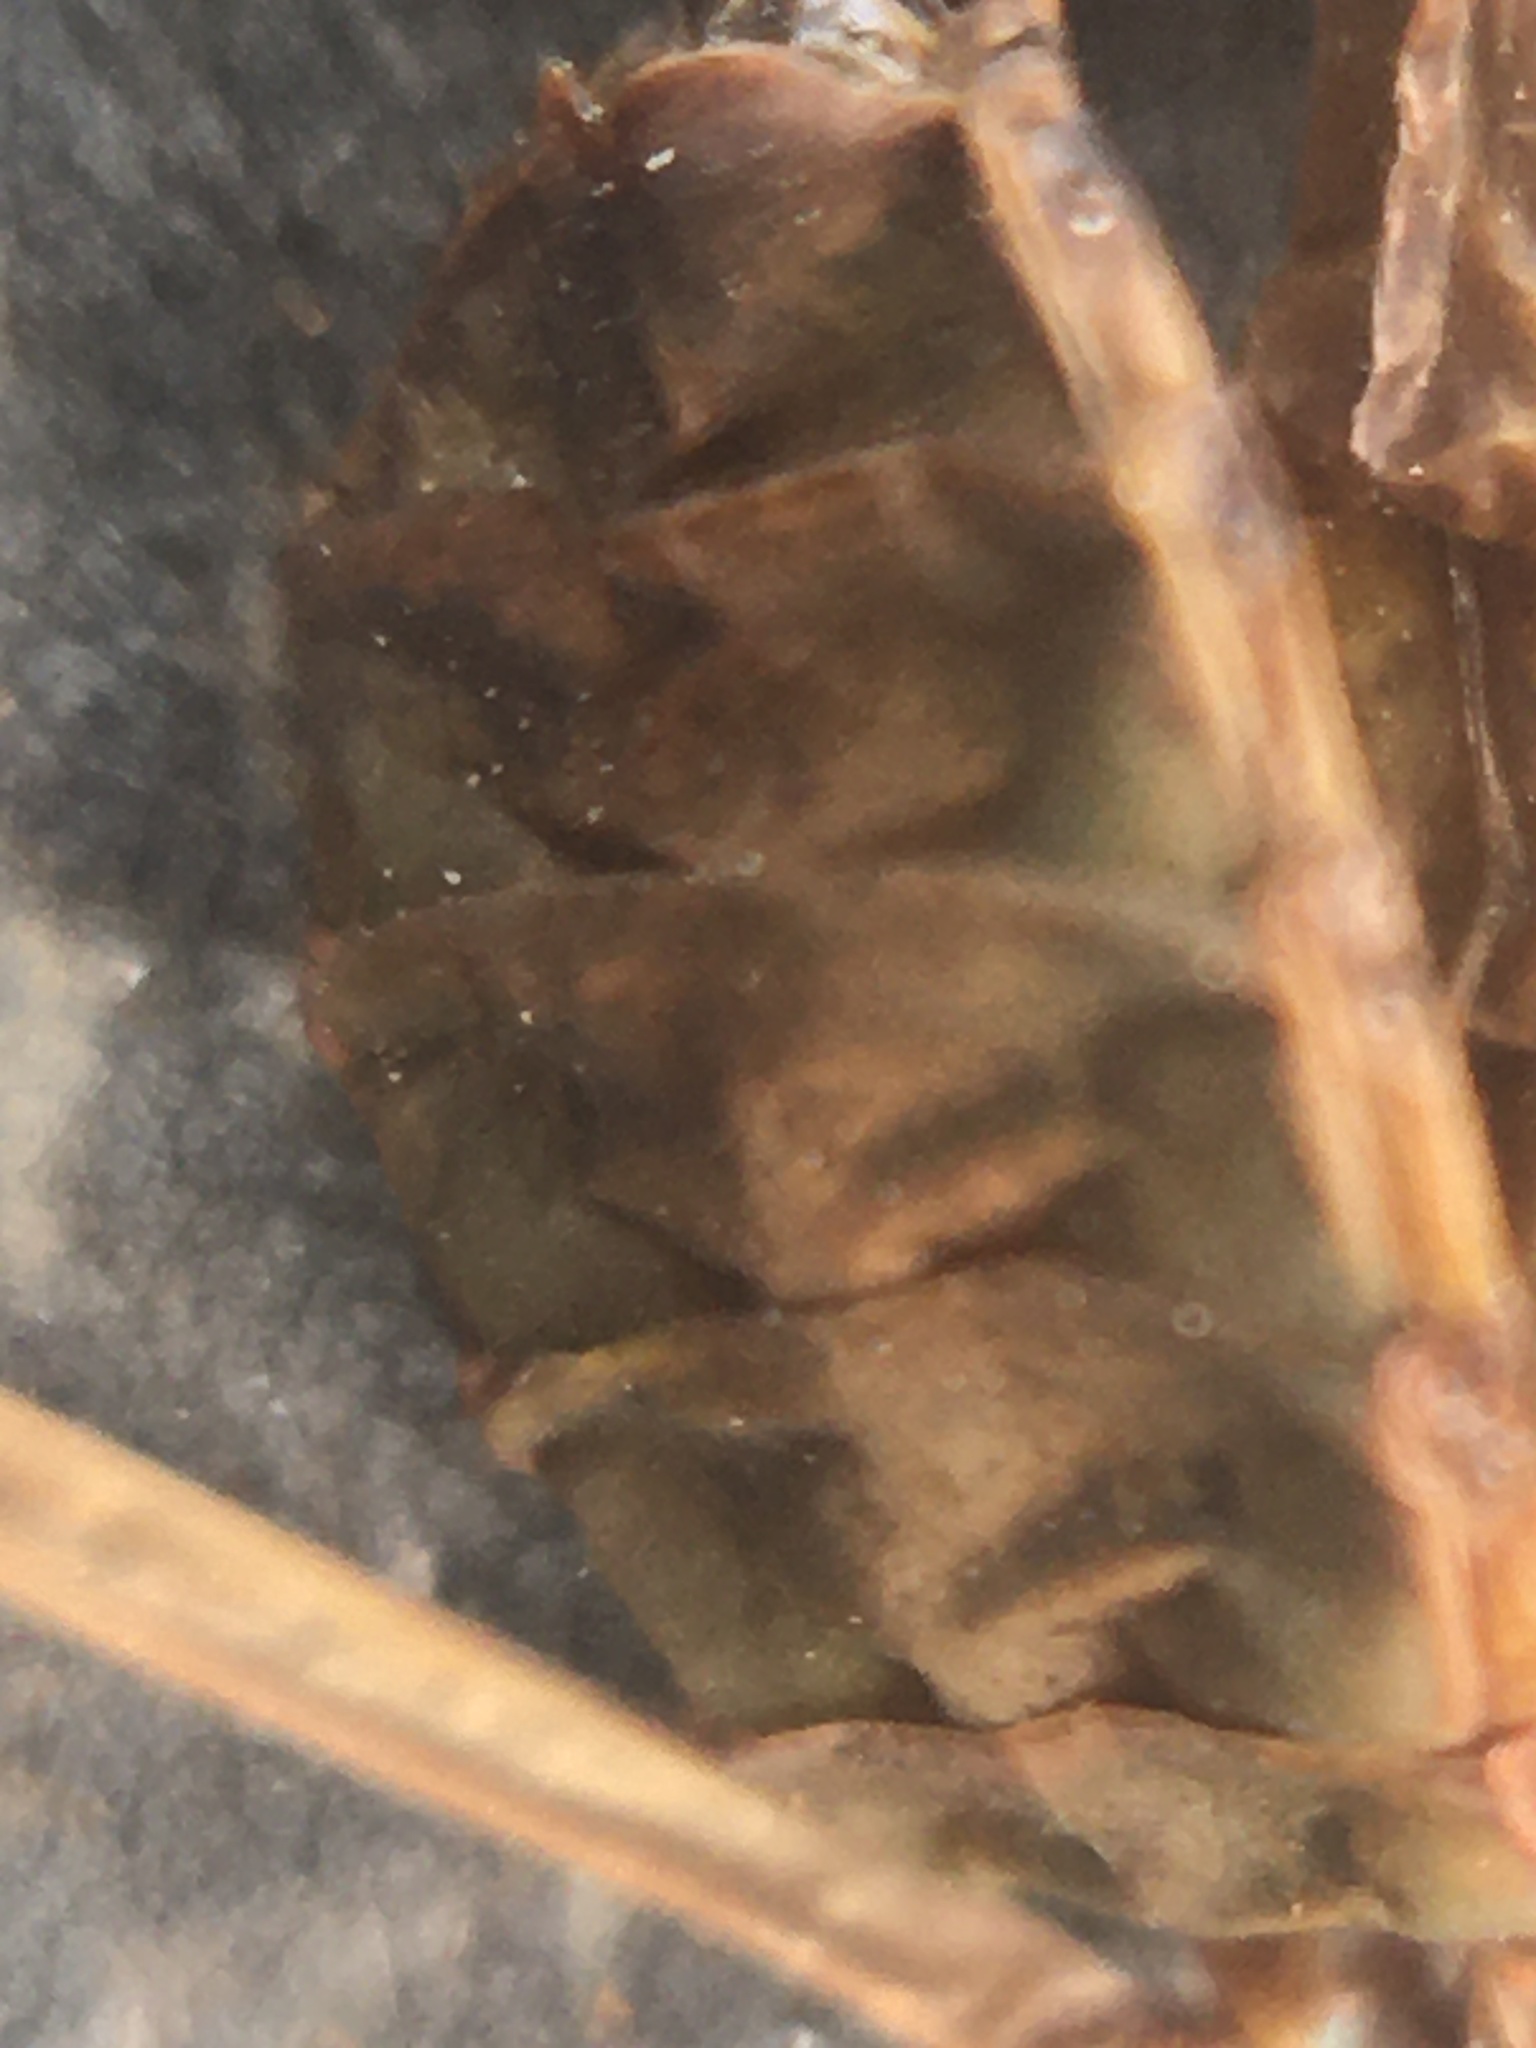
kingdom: Animalia
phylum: Arthropoda
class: Insecta
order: Mantodea
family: Mantidae
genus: Hierodula
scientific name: Hierodula transcaucasica
